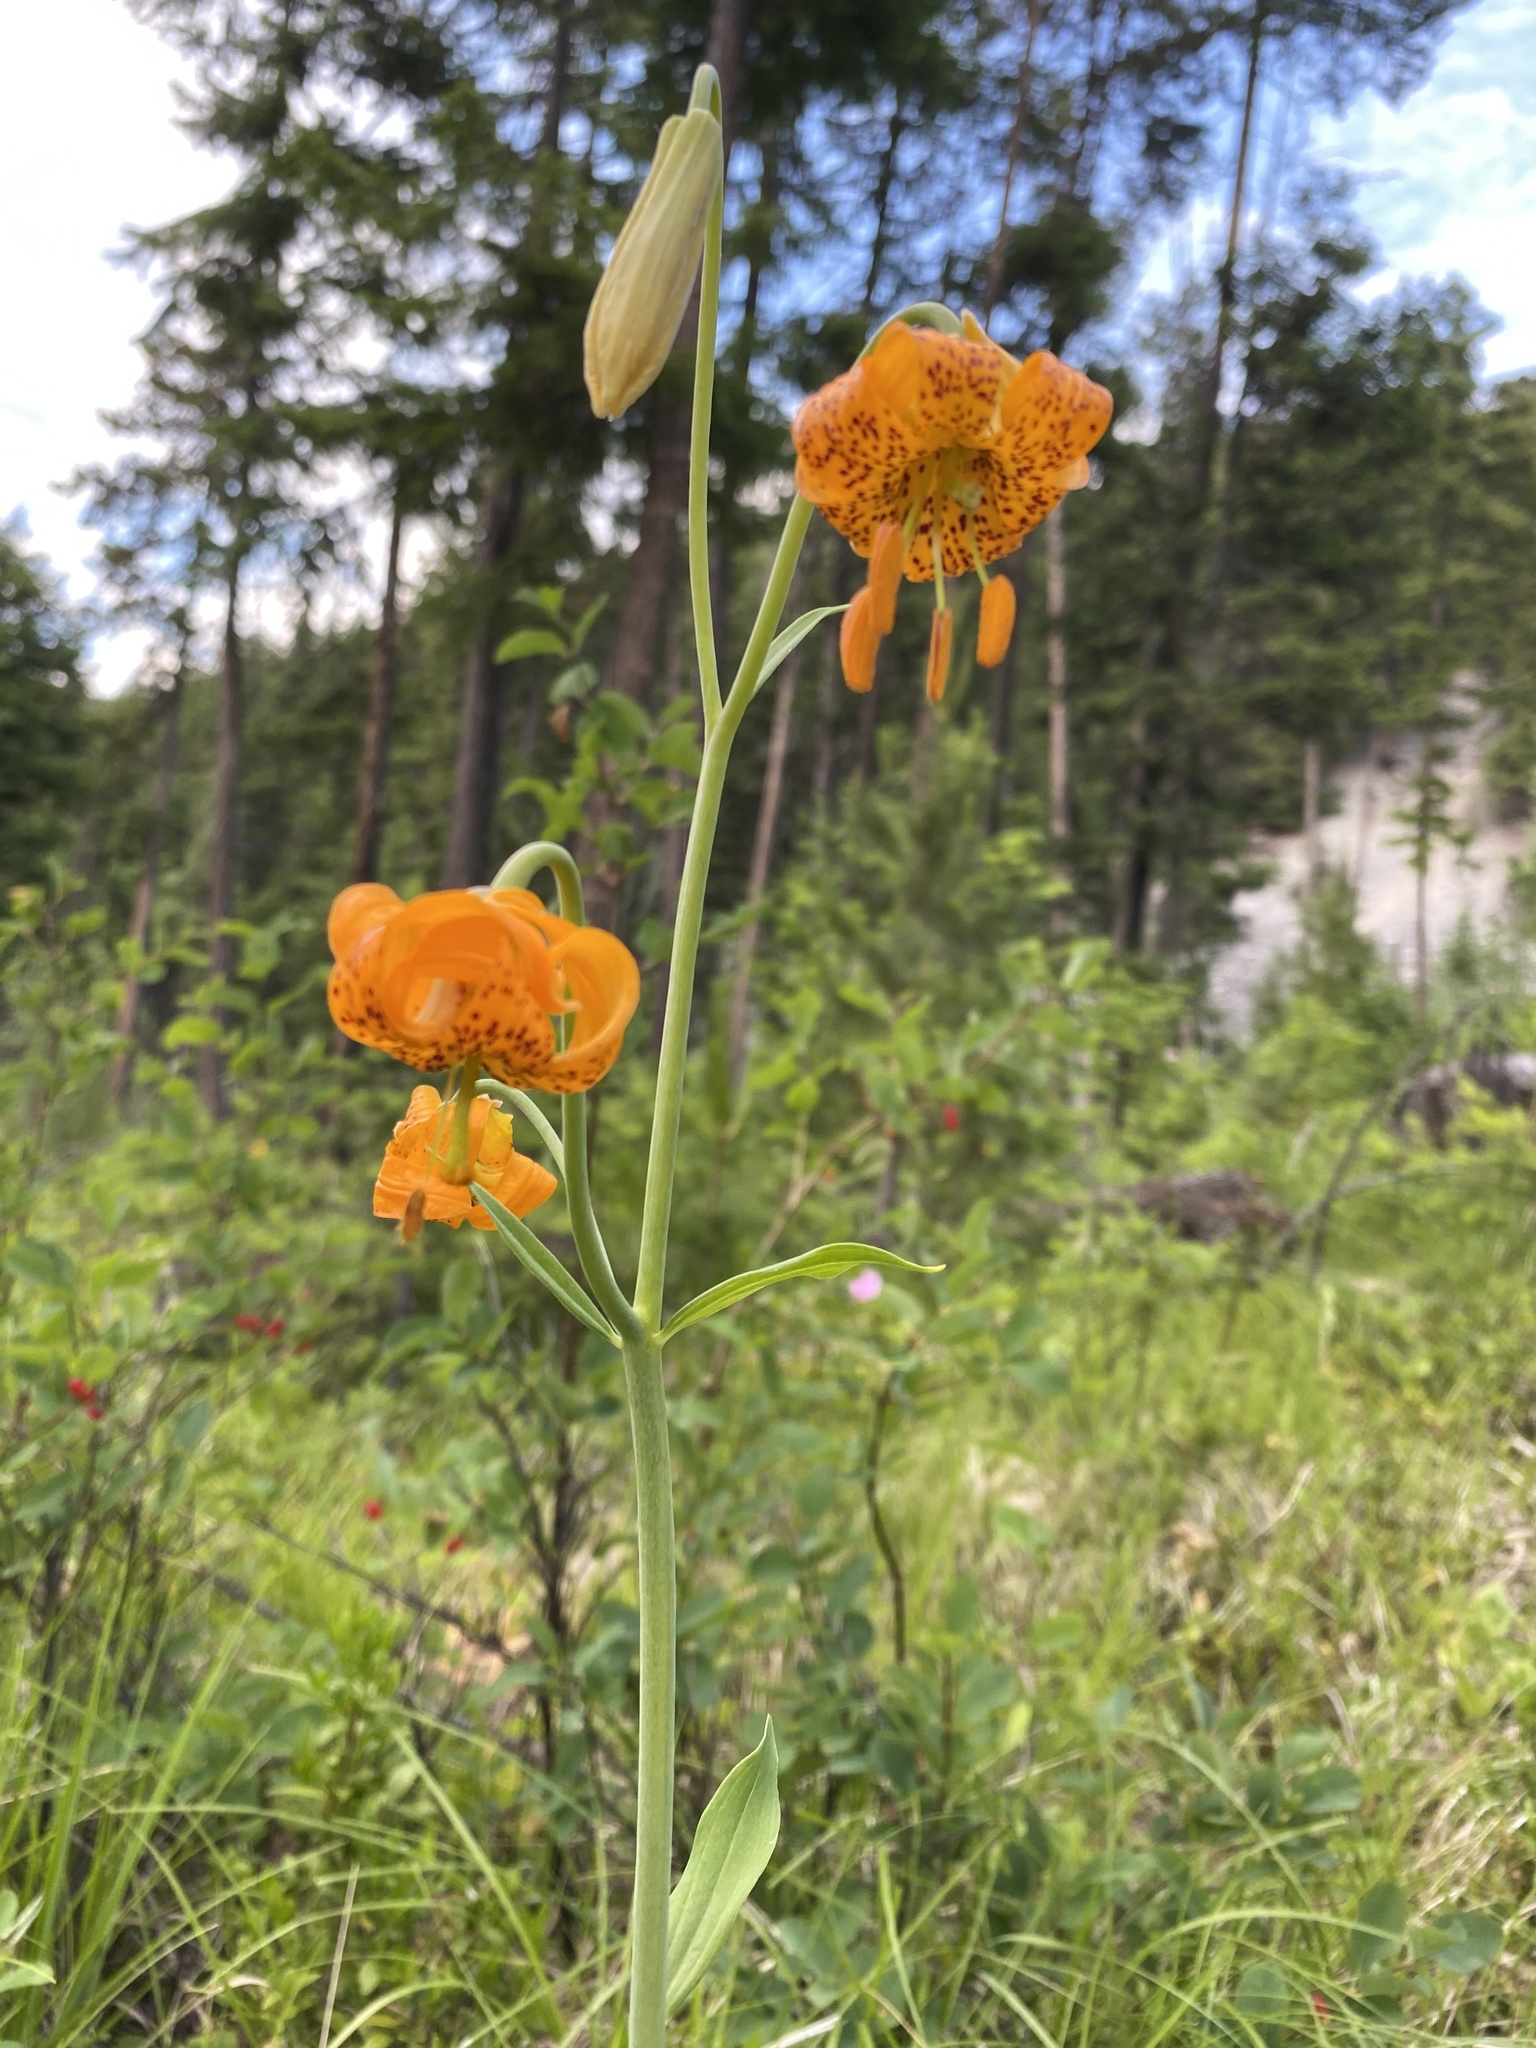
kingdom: Plantae
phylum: Tracheophyta
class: Liliopsida
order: Liliales
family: Liliaceae
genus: Lilium
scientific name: Lilium columbianum
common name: Columbia lily
